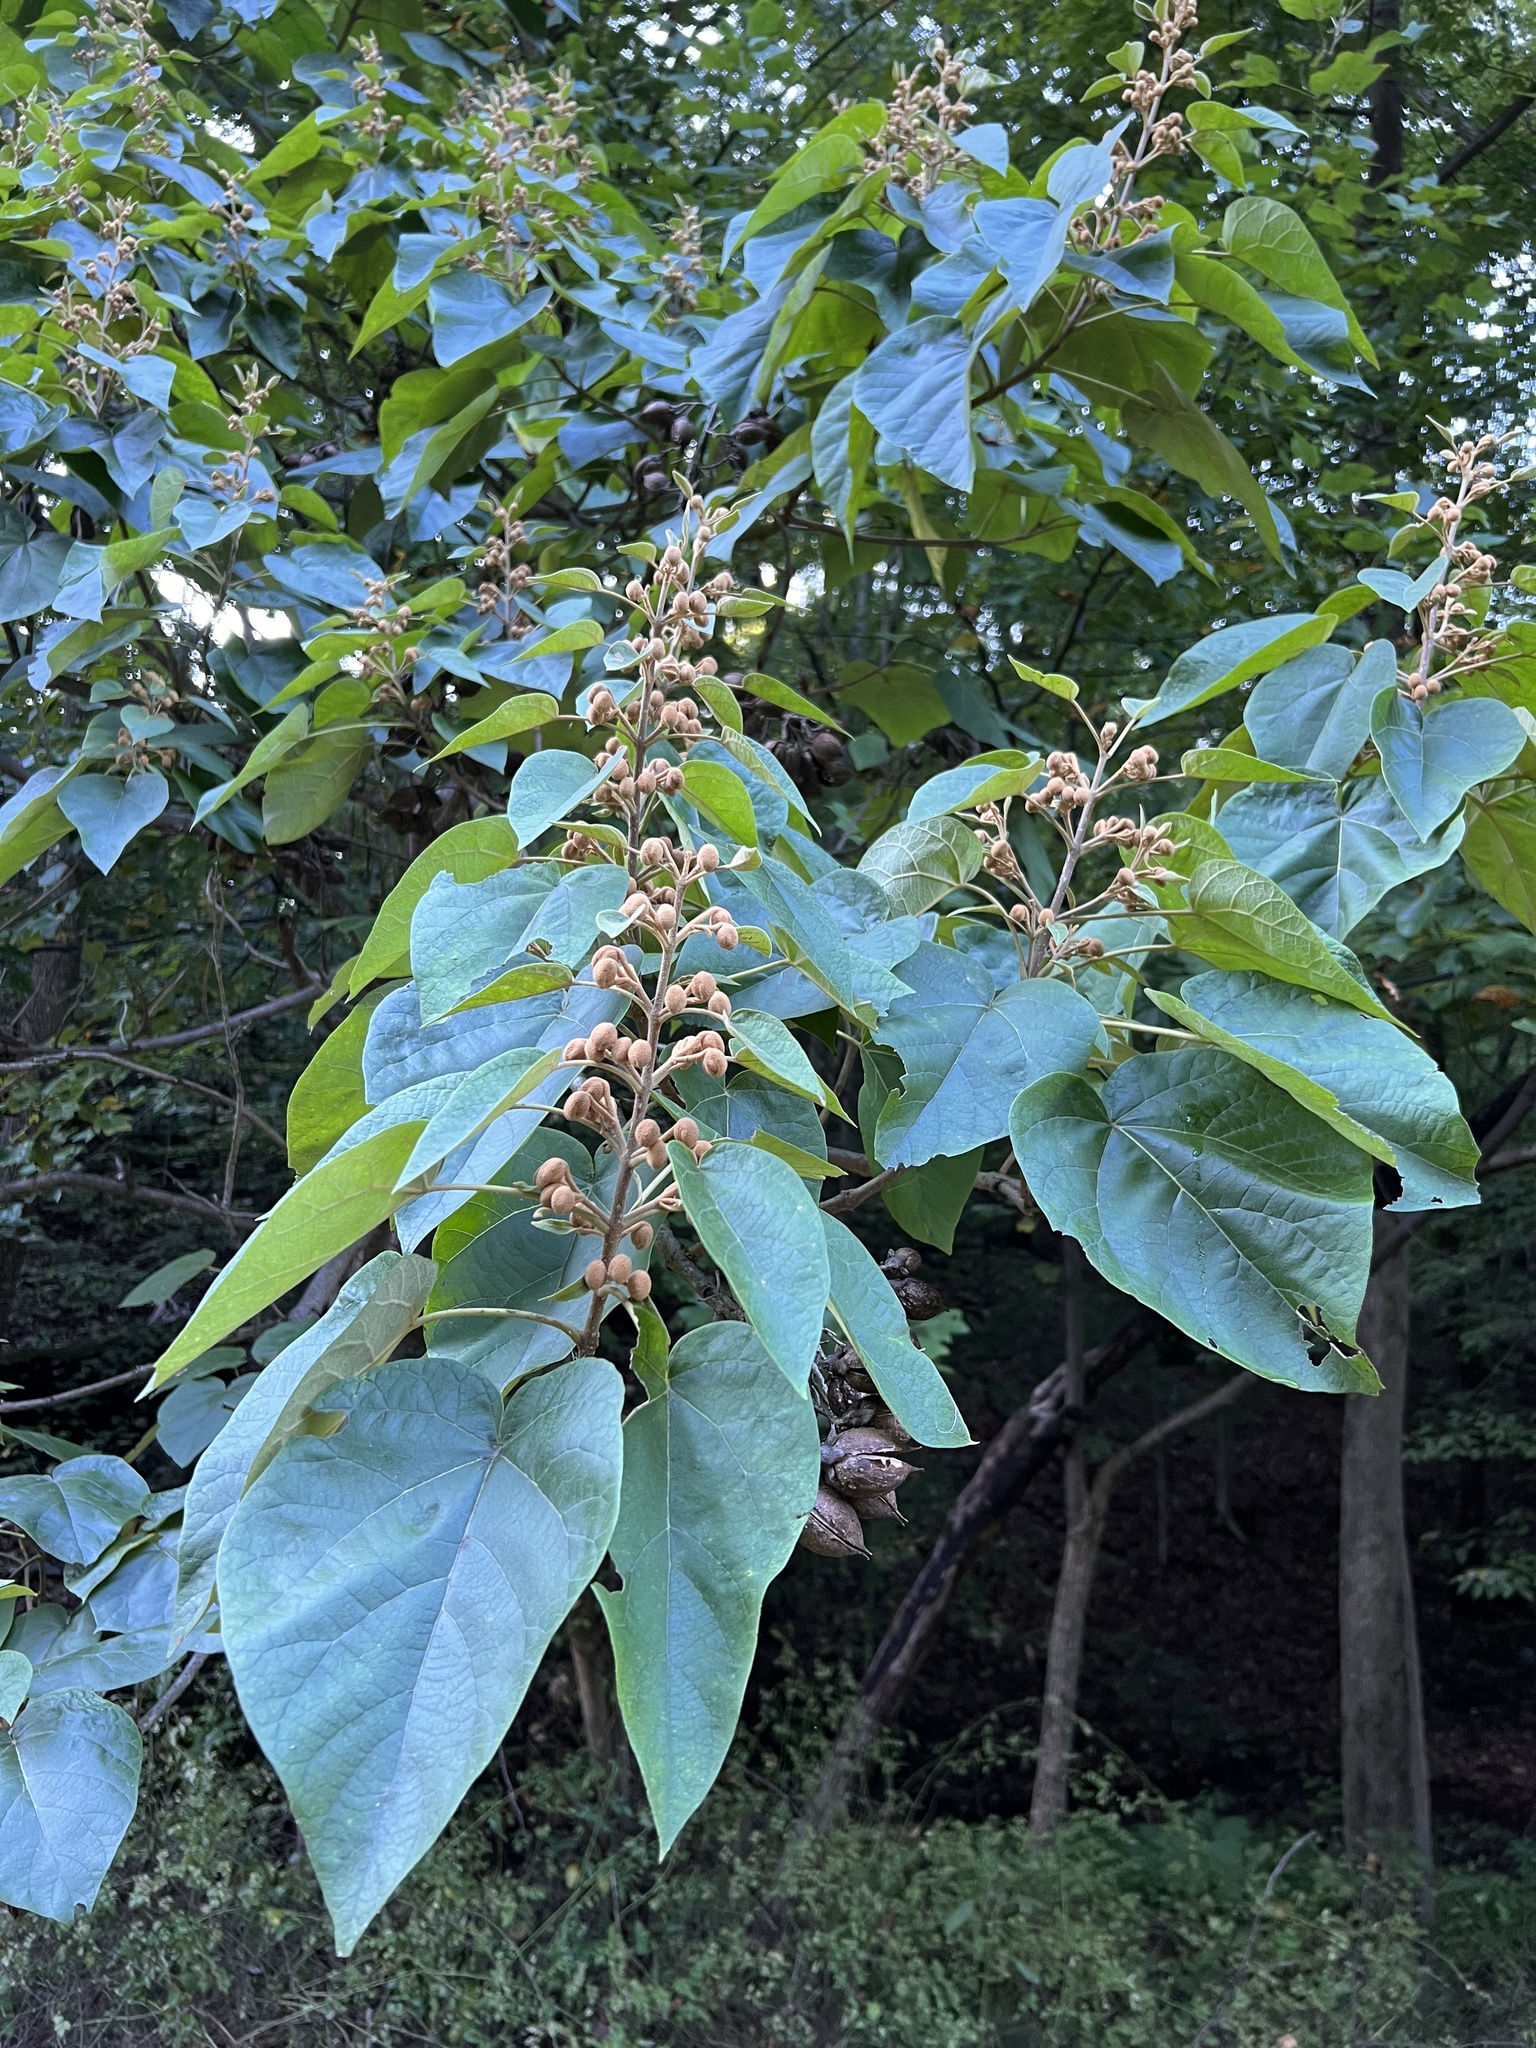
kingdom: Plantae
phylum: Tracheophyta
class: Magnoliopsida
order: Lamiales
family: Paulowniaceae
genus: Paulownia
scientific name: Paulownia tomentosa
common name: Foxglove-tree
